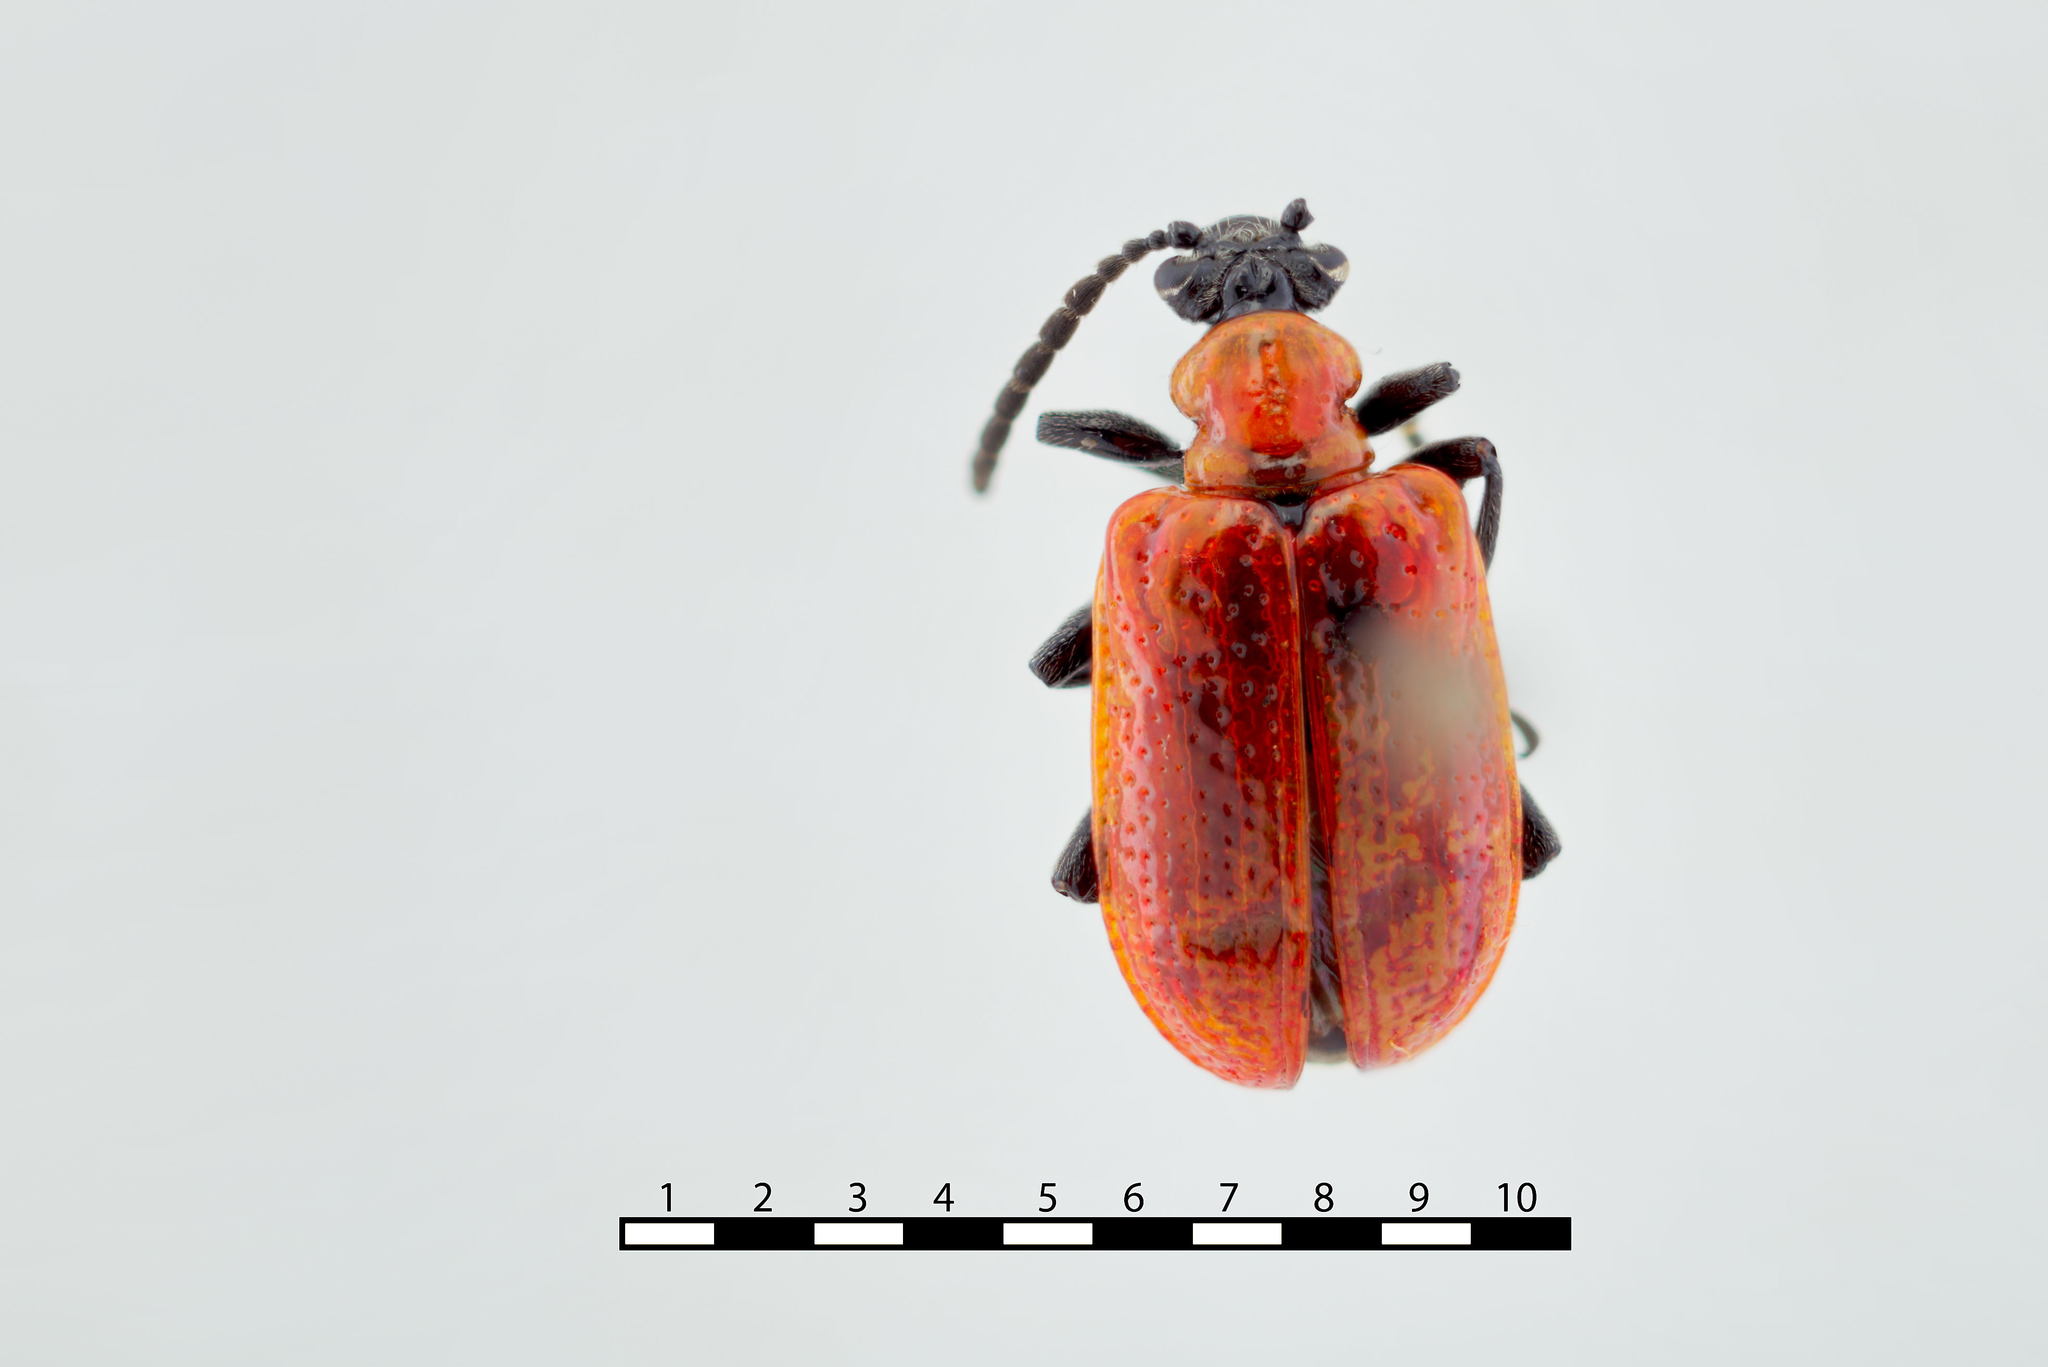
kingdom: Animalia
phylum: Arthropoda
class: Insecta
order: Coleoptera
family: Chrysomelidae
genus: Lilioceris
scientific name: Lilioceris lilii
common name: Lily beetle
